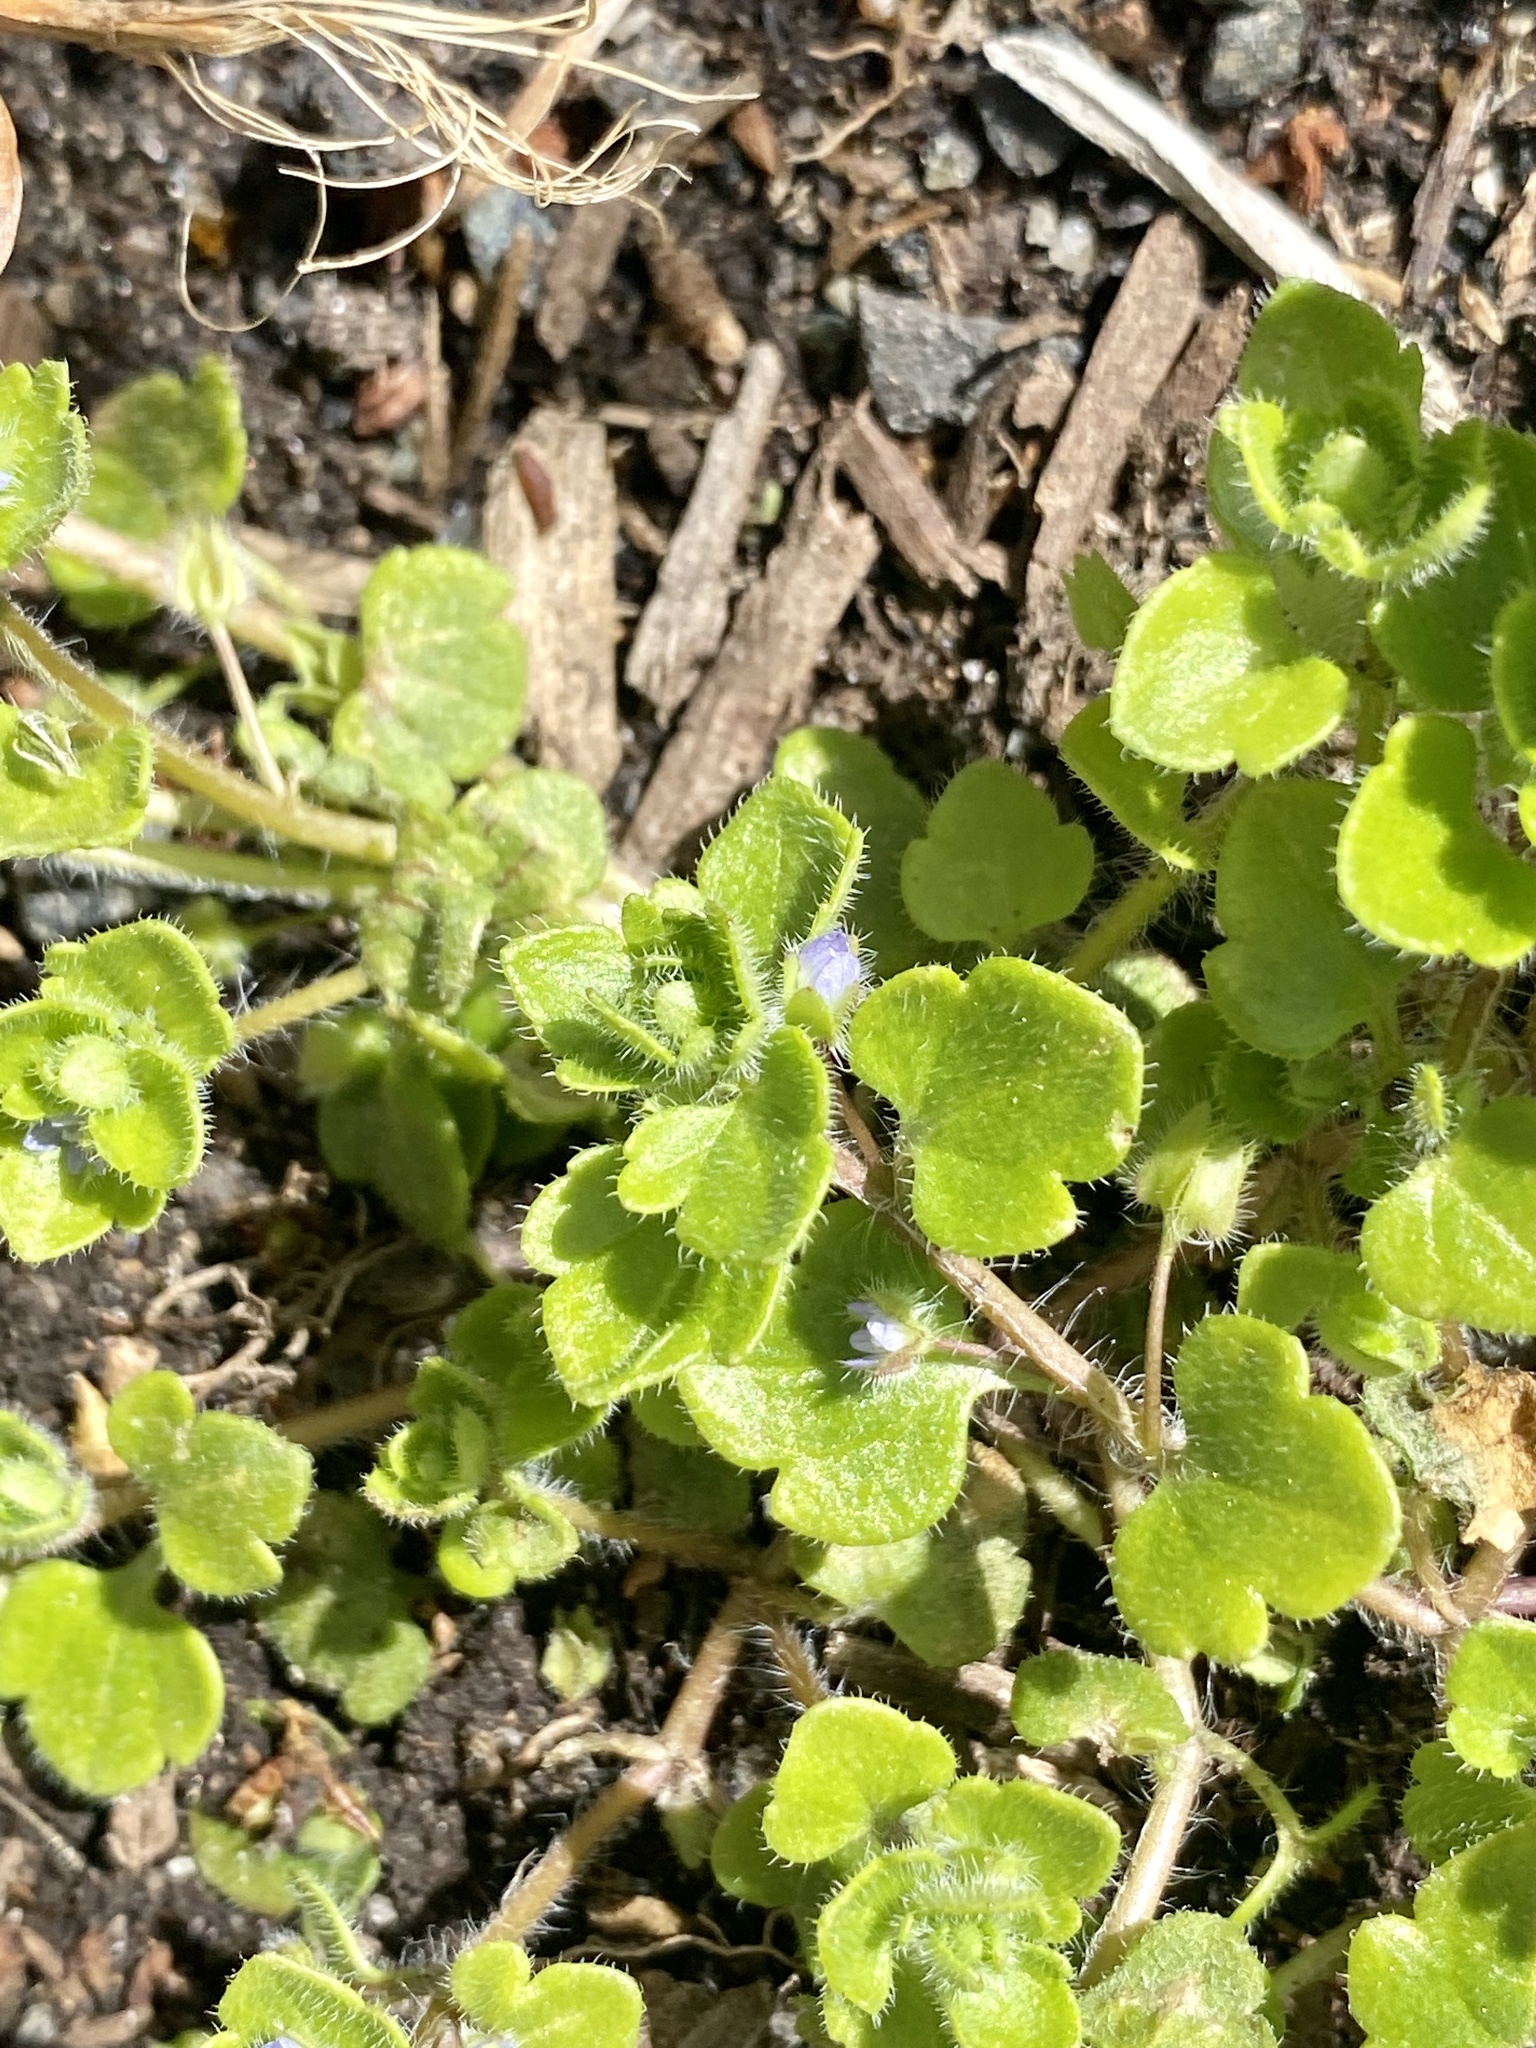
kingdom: Plantae
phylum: Tracheophyta
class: Magnoliopsida
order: Lamiales
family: Plantaginaceae
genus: Veronica
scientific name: Veronica hederifolia
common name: Ivy-leaved speedwell
